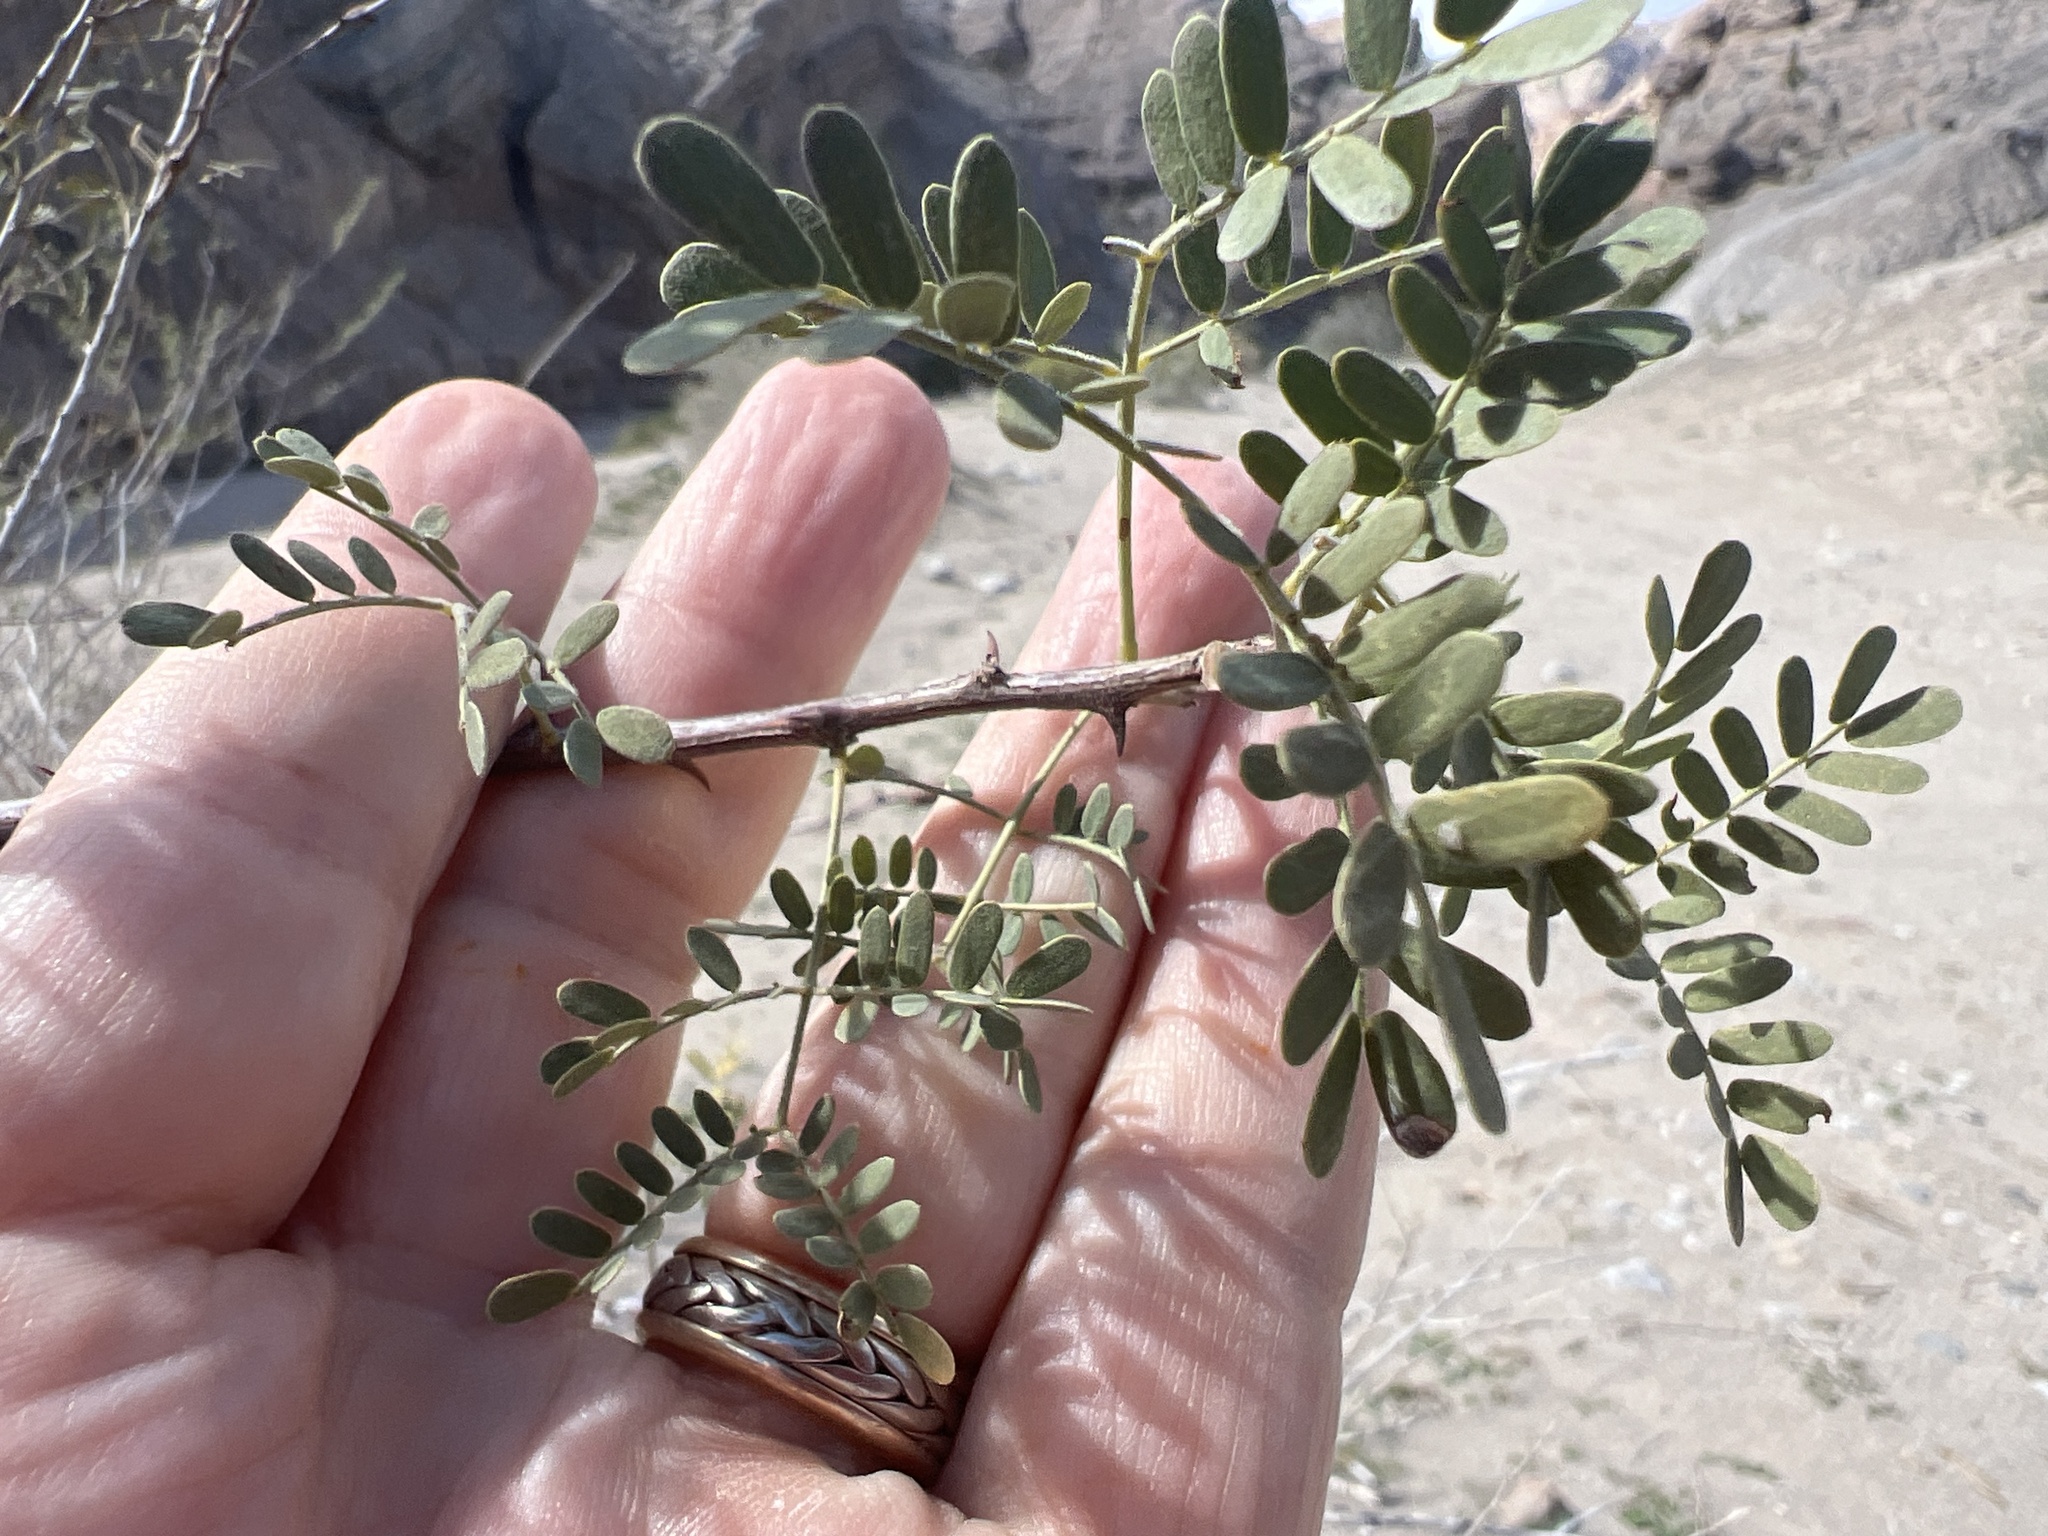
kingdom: Plantae
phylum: Tracheophyta
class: Magnoliopsida
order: Fabales
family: Fabaceae
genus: Senegalia
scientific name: Senegalia greggii
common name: Texas-mimosa
